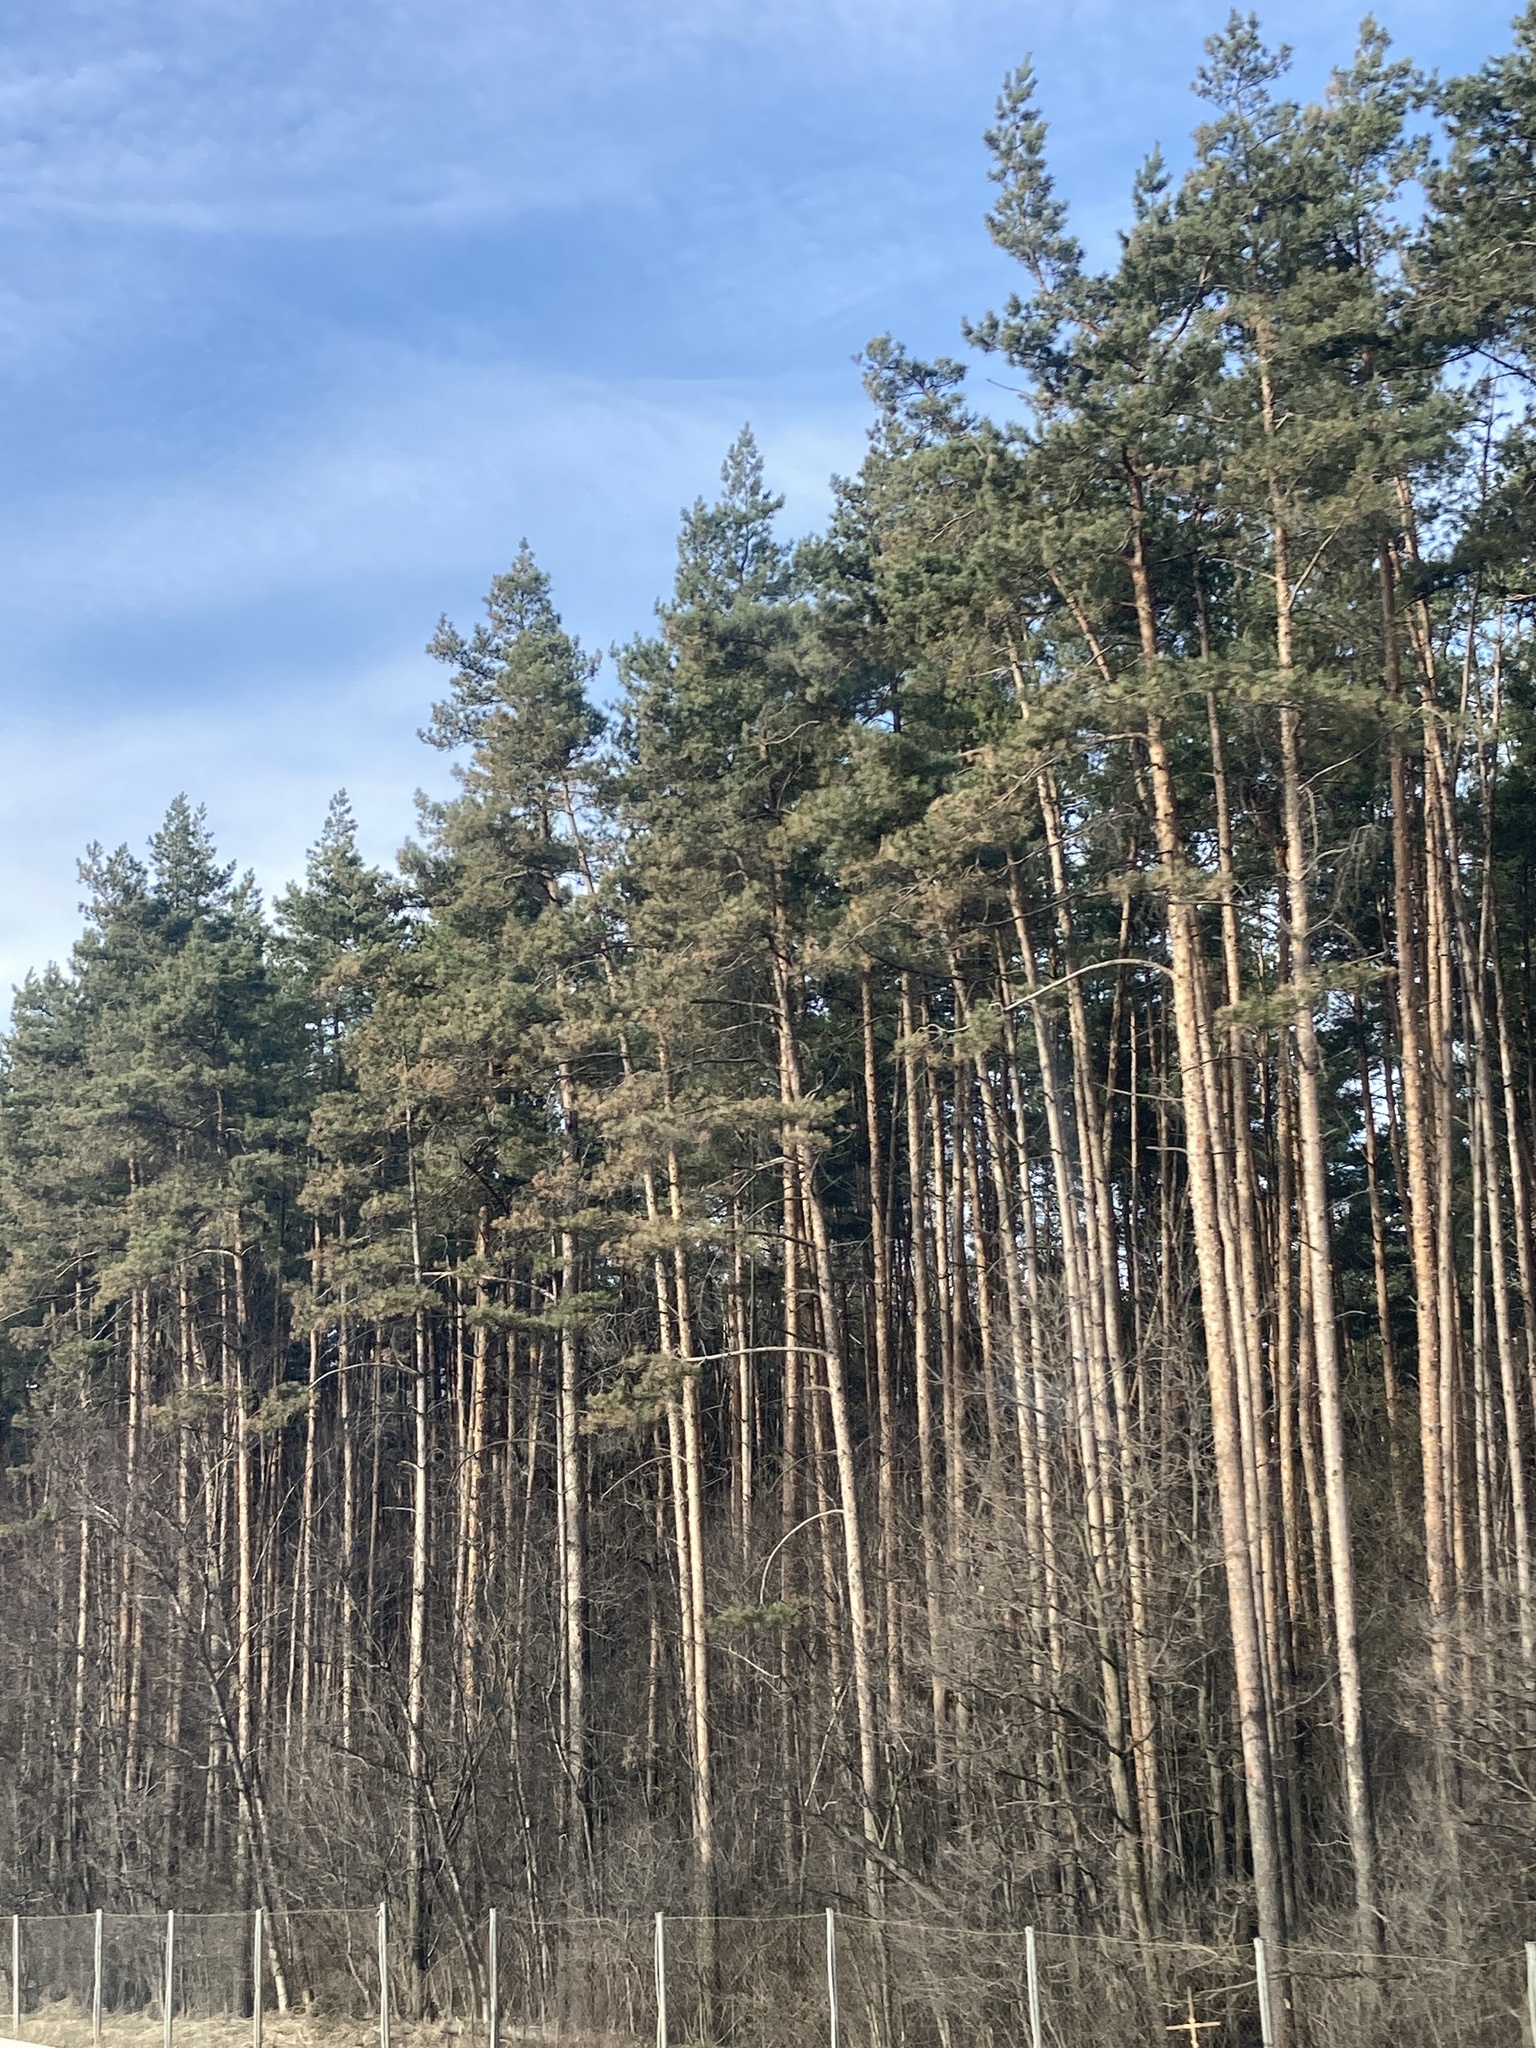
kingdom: Plantae
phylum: Tracheophyta
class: Pinopsida
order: Pinales
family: Pinaceae
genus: Pinus
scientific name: Pinus sylvestris
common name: Scots pine
